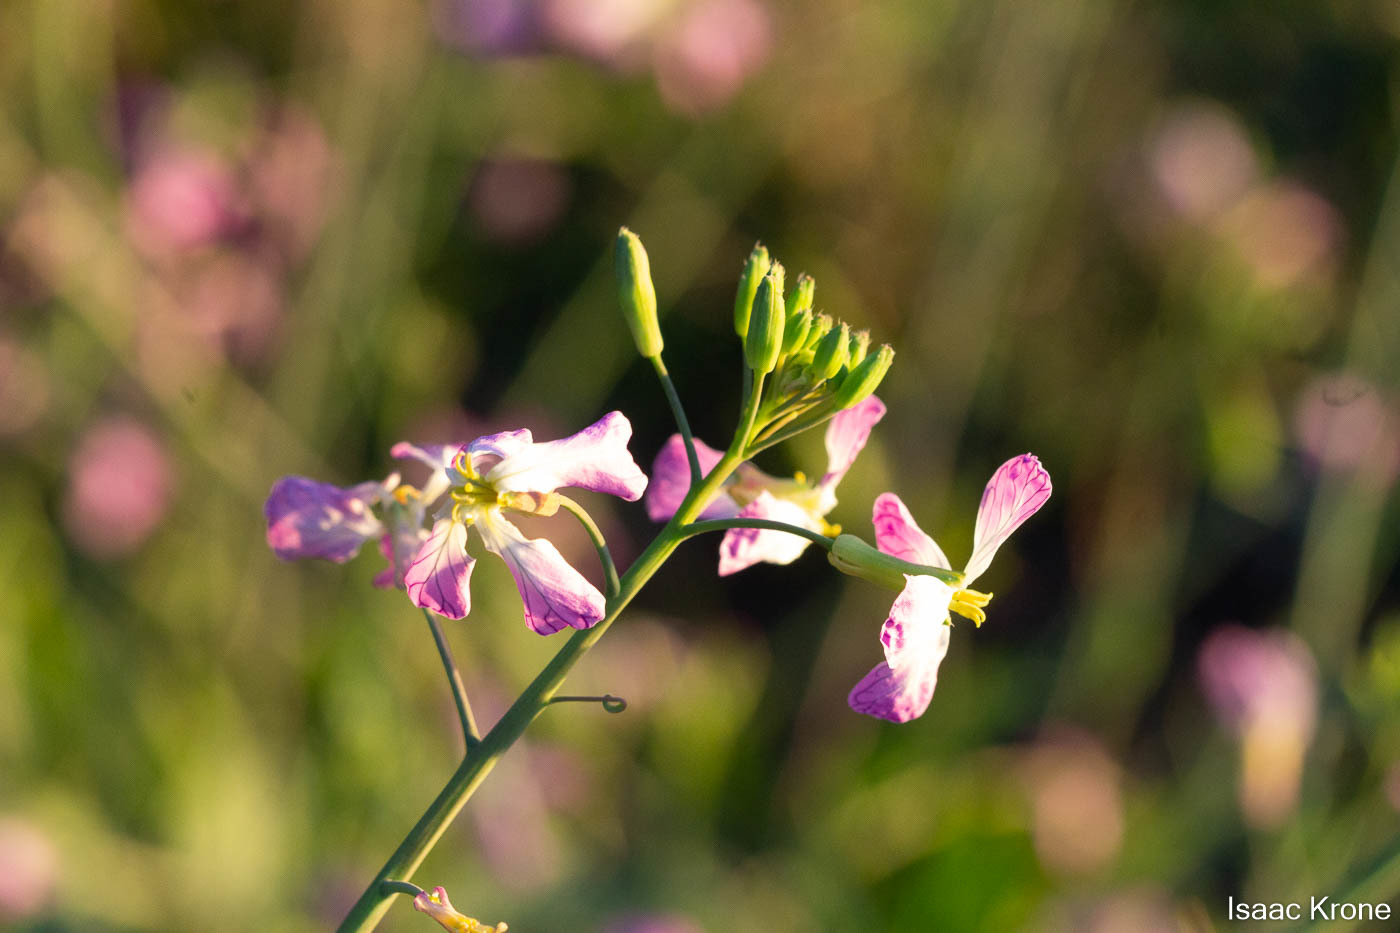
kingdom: Plantae
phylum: Tracheophyta
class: Magnoliopsida
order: Brassicales
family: Brassicaceae
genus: Raphanus
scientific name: Raphanus sativus
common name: Cultivated radish
